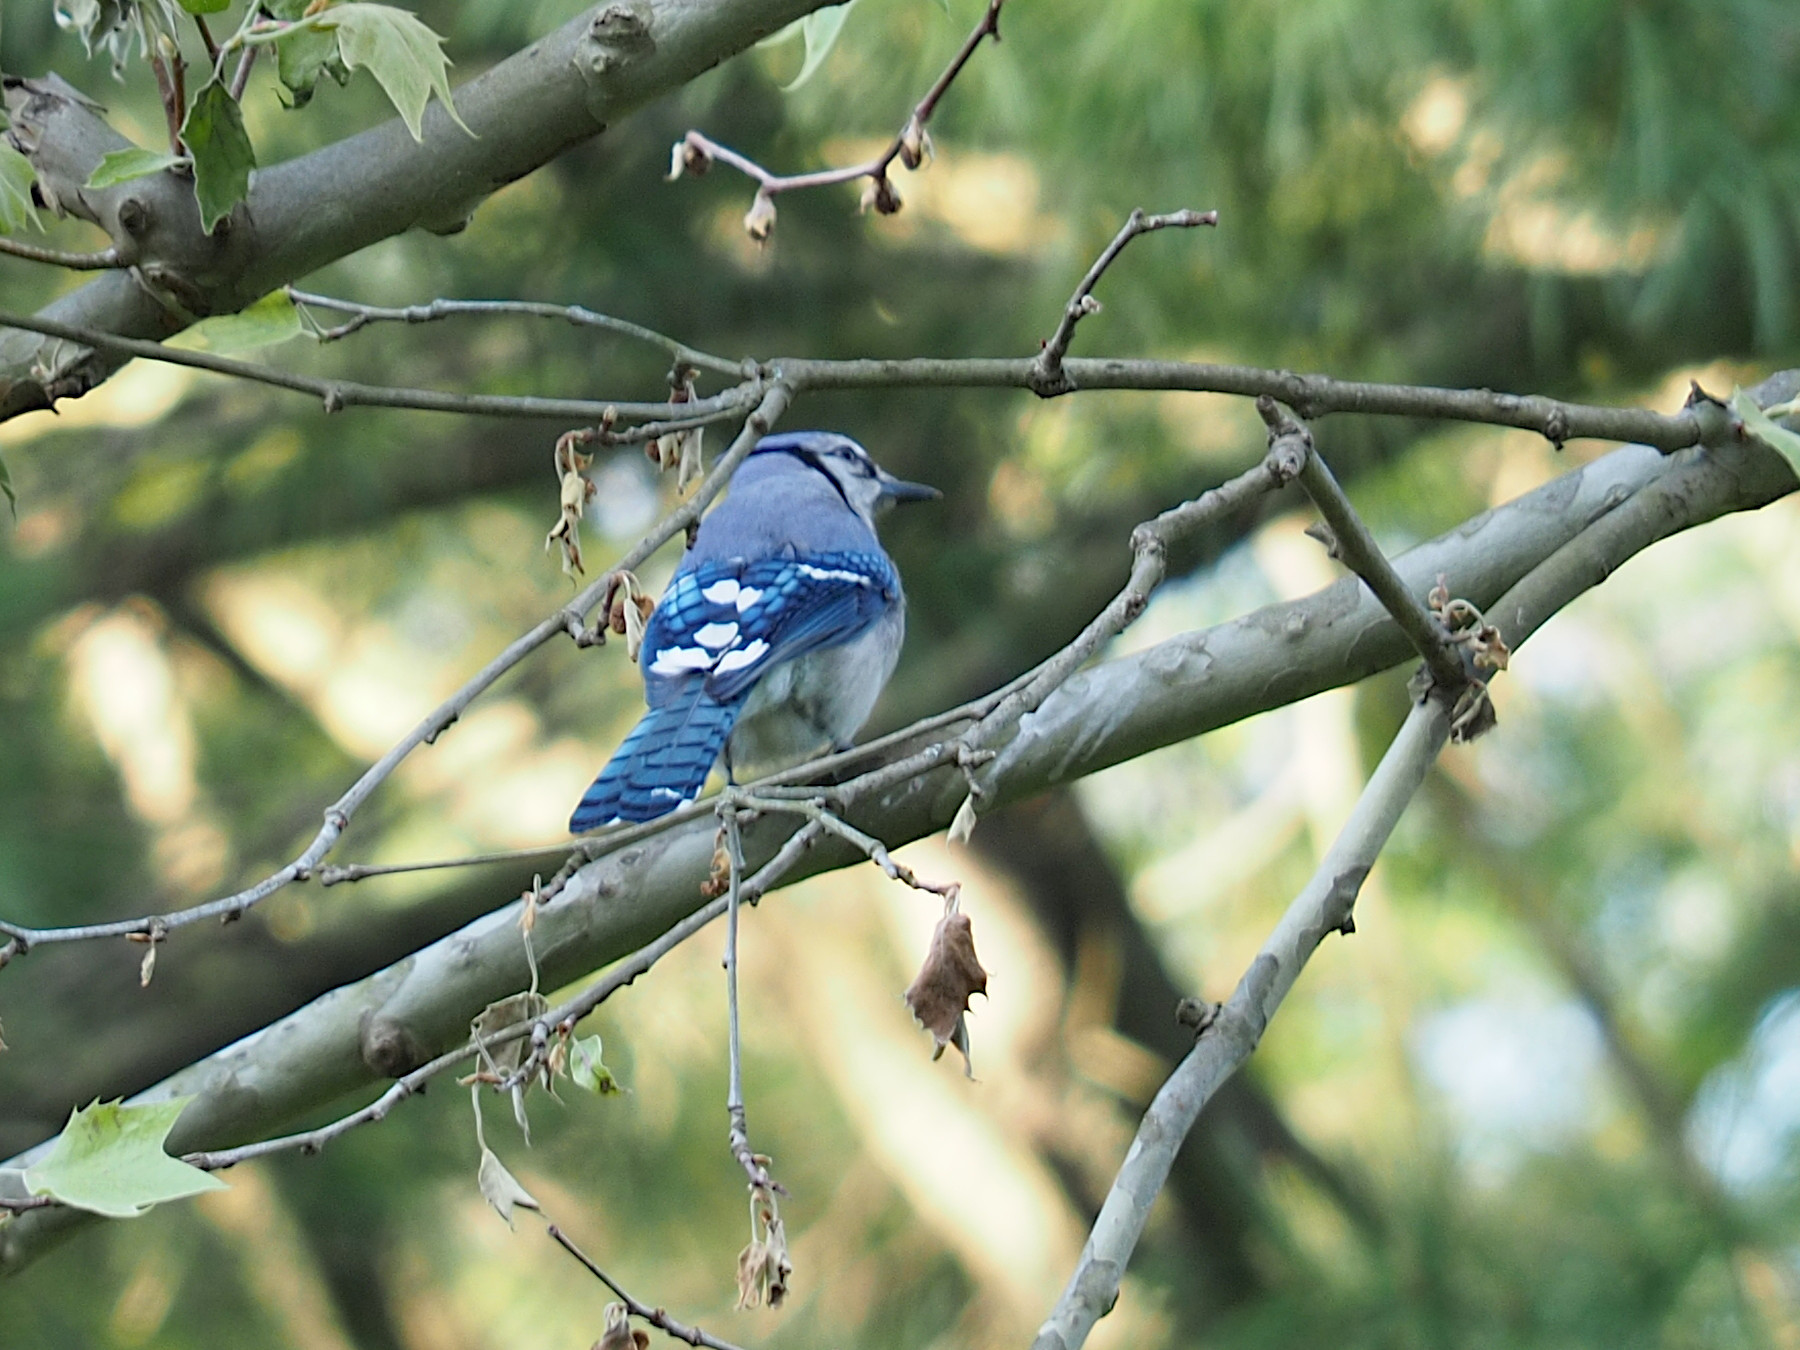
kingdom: Animalia
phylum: Chordata
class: Aves
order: Passeriformes
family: Corvidae
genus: Cyanocitta
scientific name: Cyanocitta cristata
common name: Blue jay
